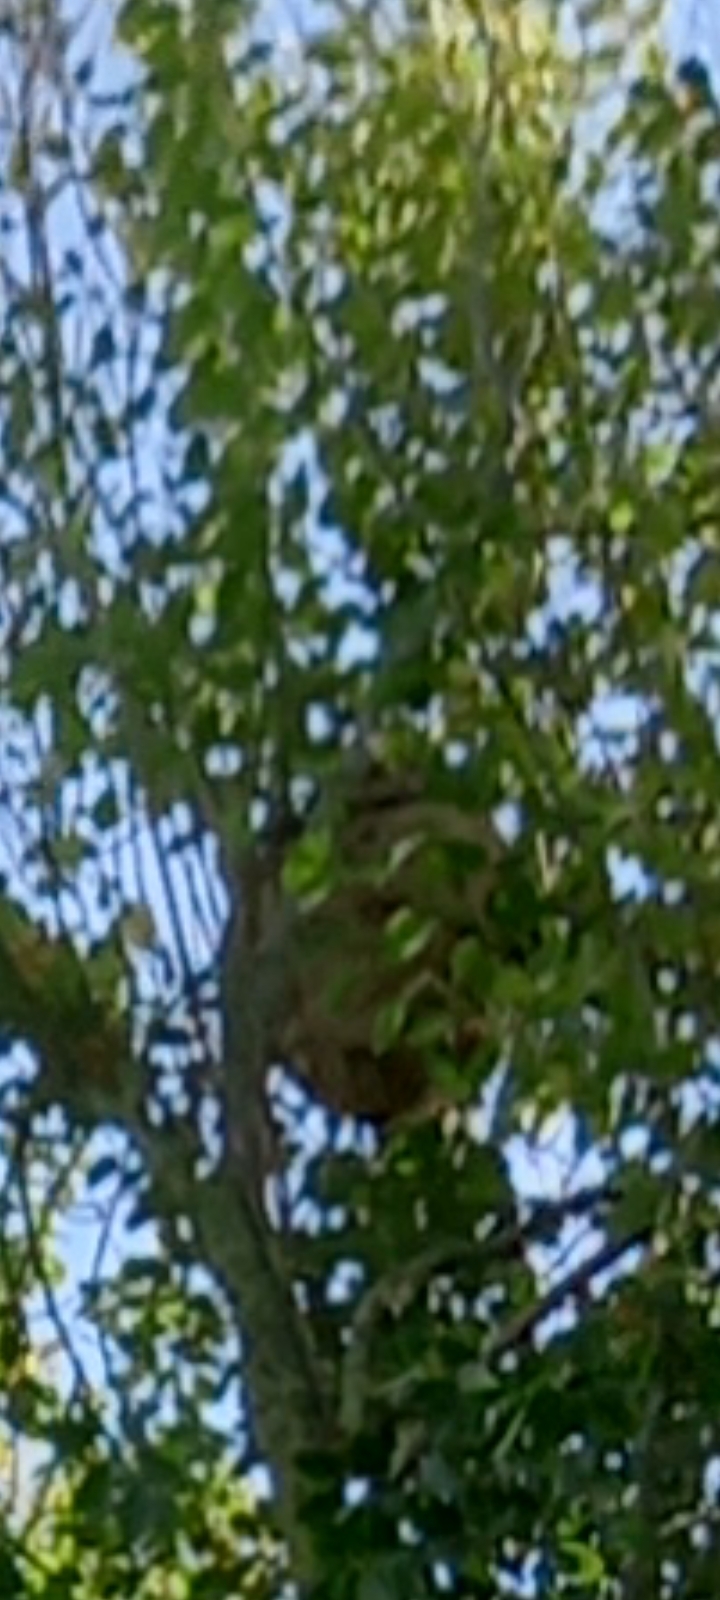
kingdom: Animalia
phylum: Arthropoda
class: Insecta
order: Hymenoptera
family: Vespidae
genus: Vespa
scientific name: Vespa velutina
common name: Asian hornet
